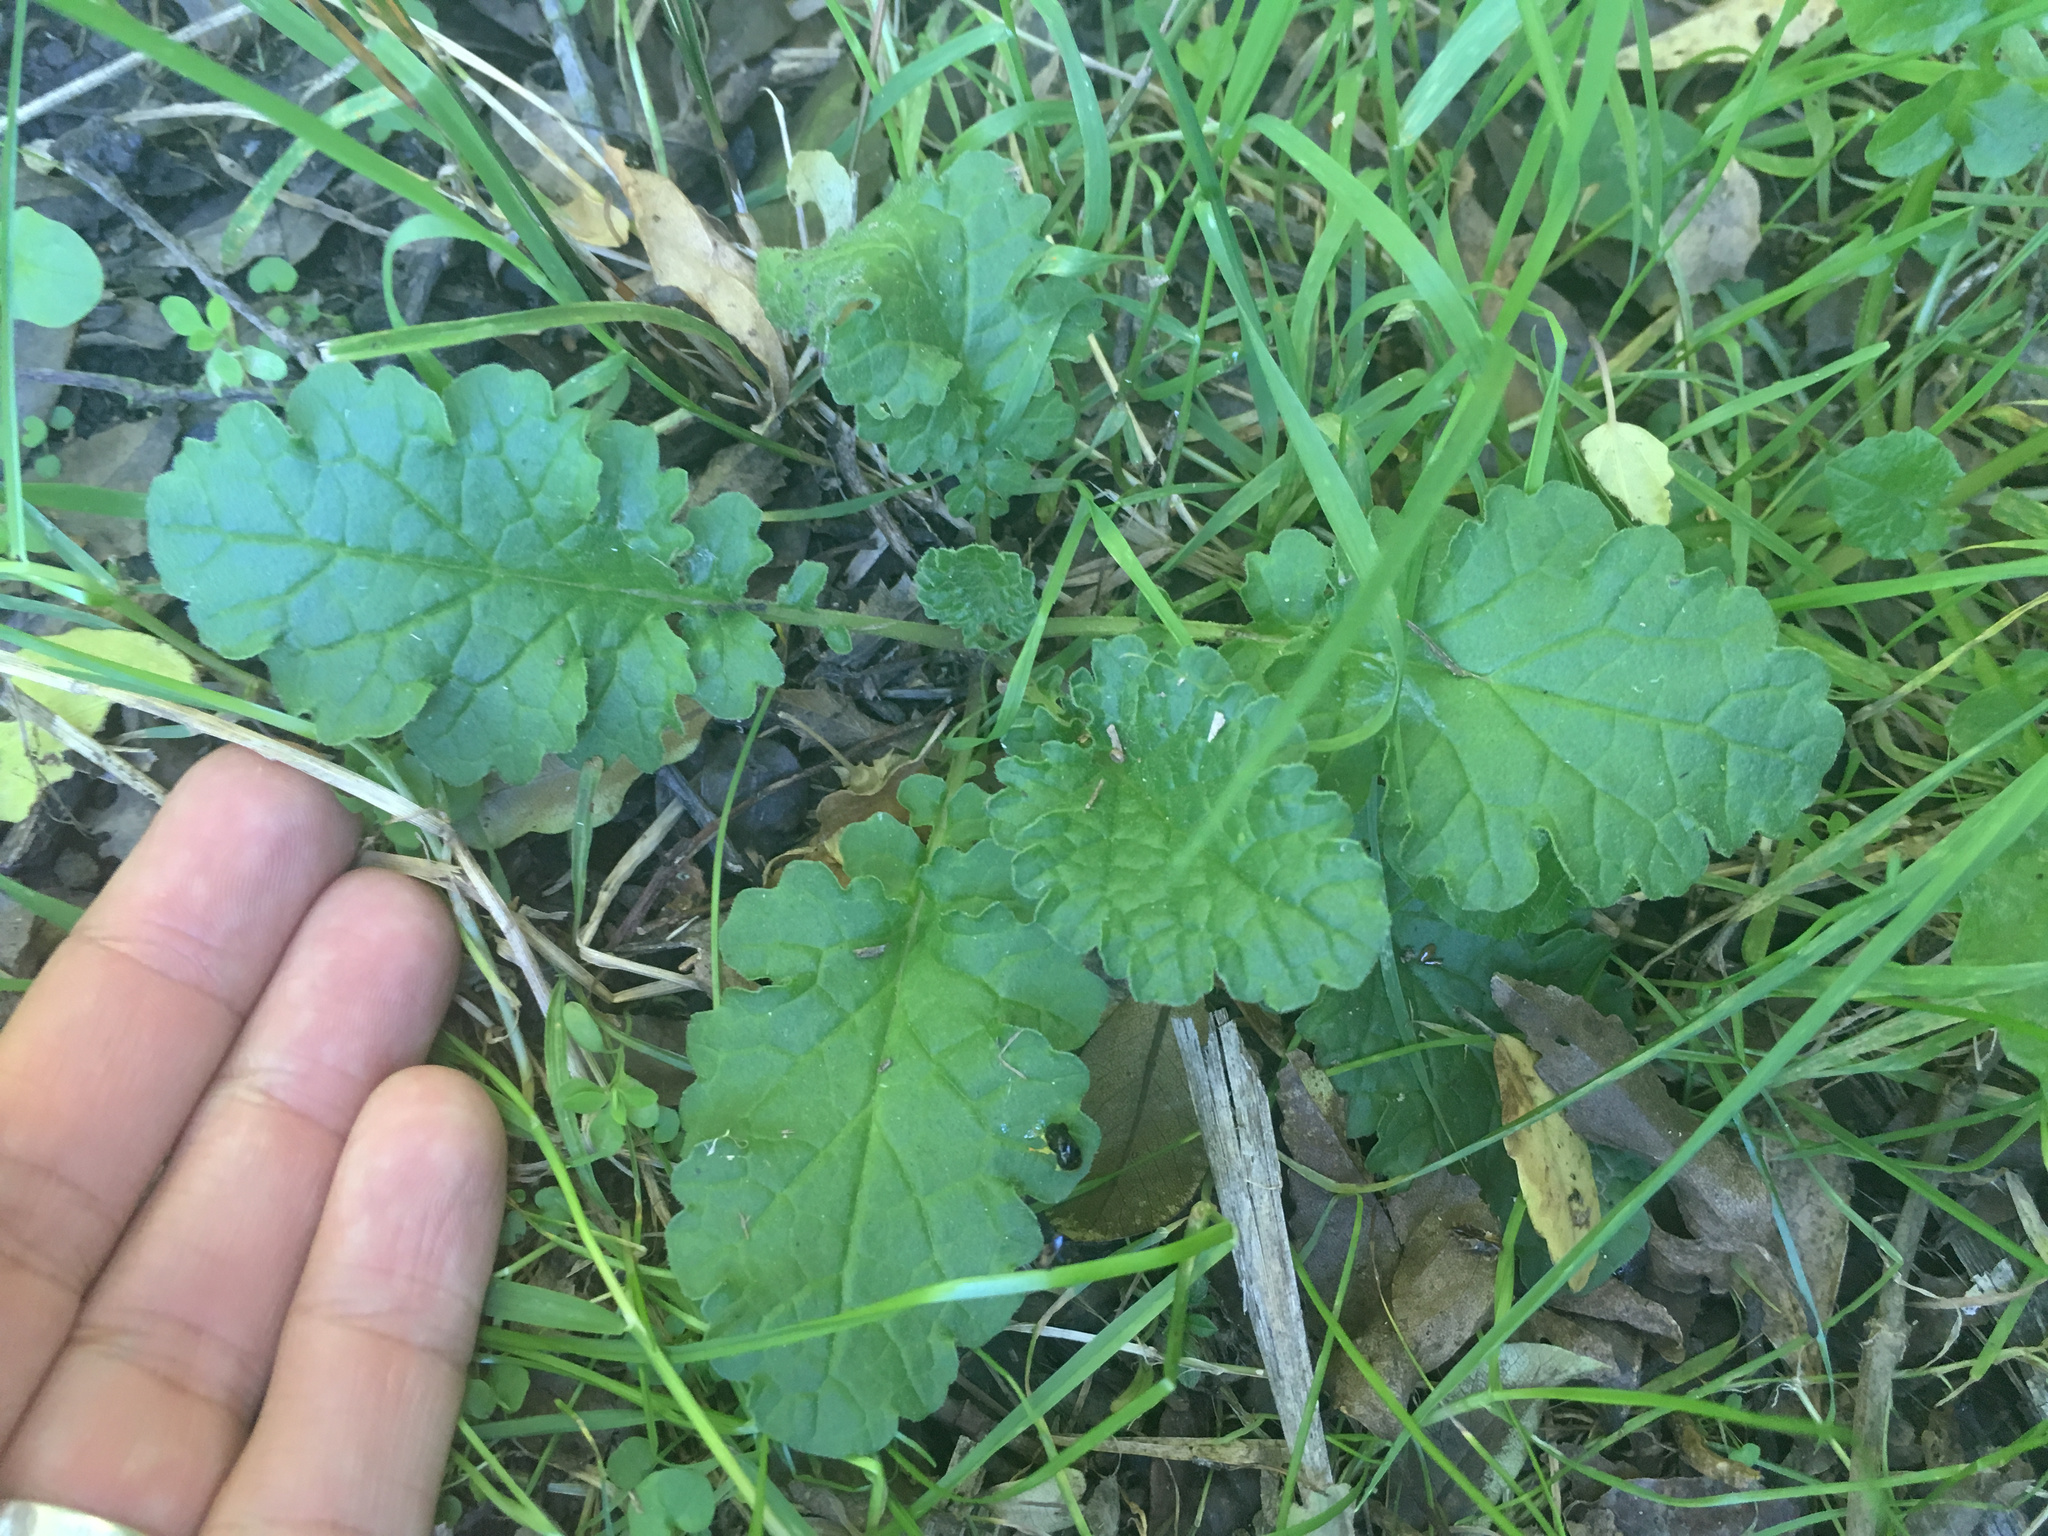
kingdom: Plantae
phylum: Tracheophyta
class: Magnoliopsida
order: Asterales
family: Asteraceae
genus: Jacobaea
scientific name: Jacobaea vulgaris
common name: Stinking willie
